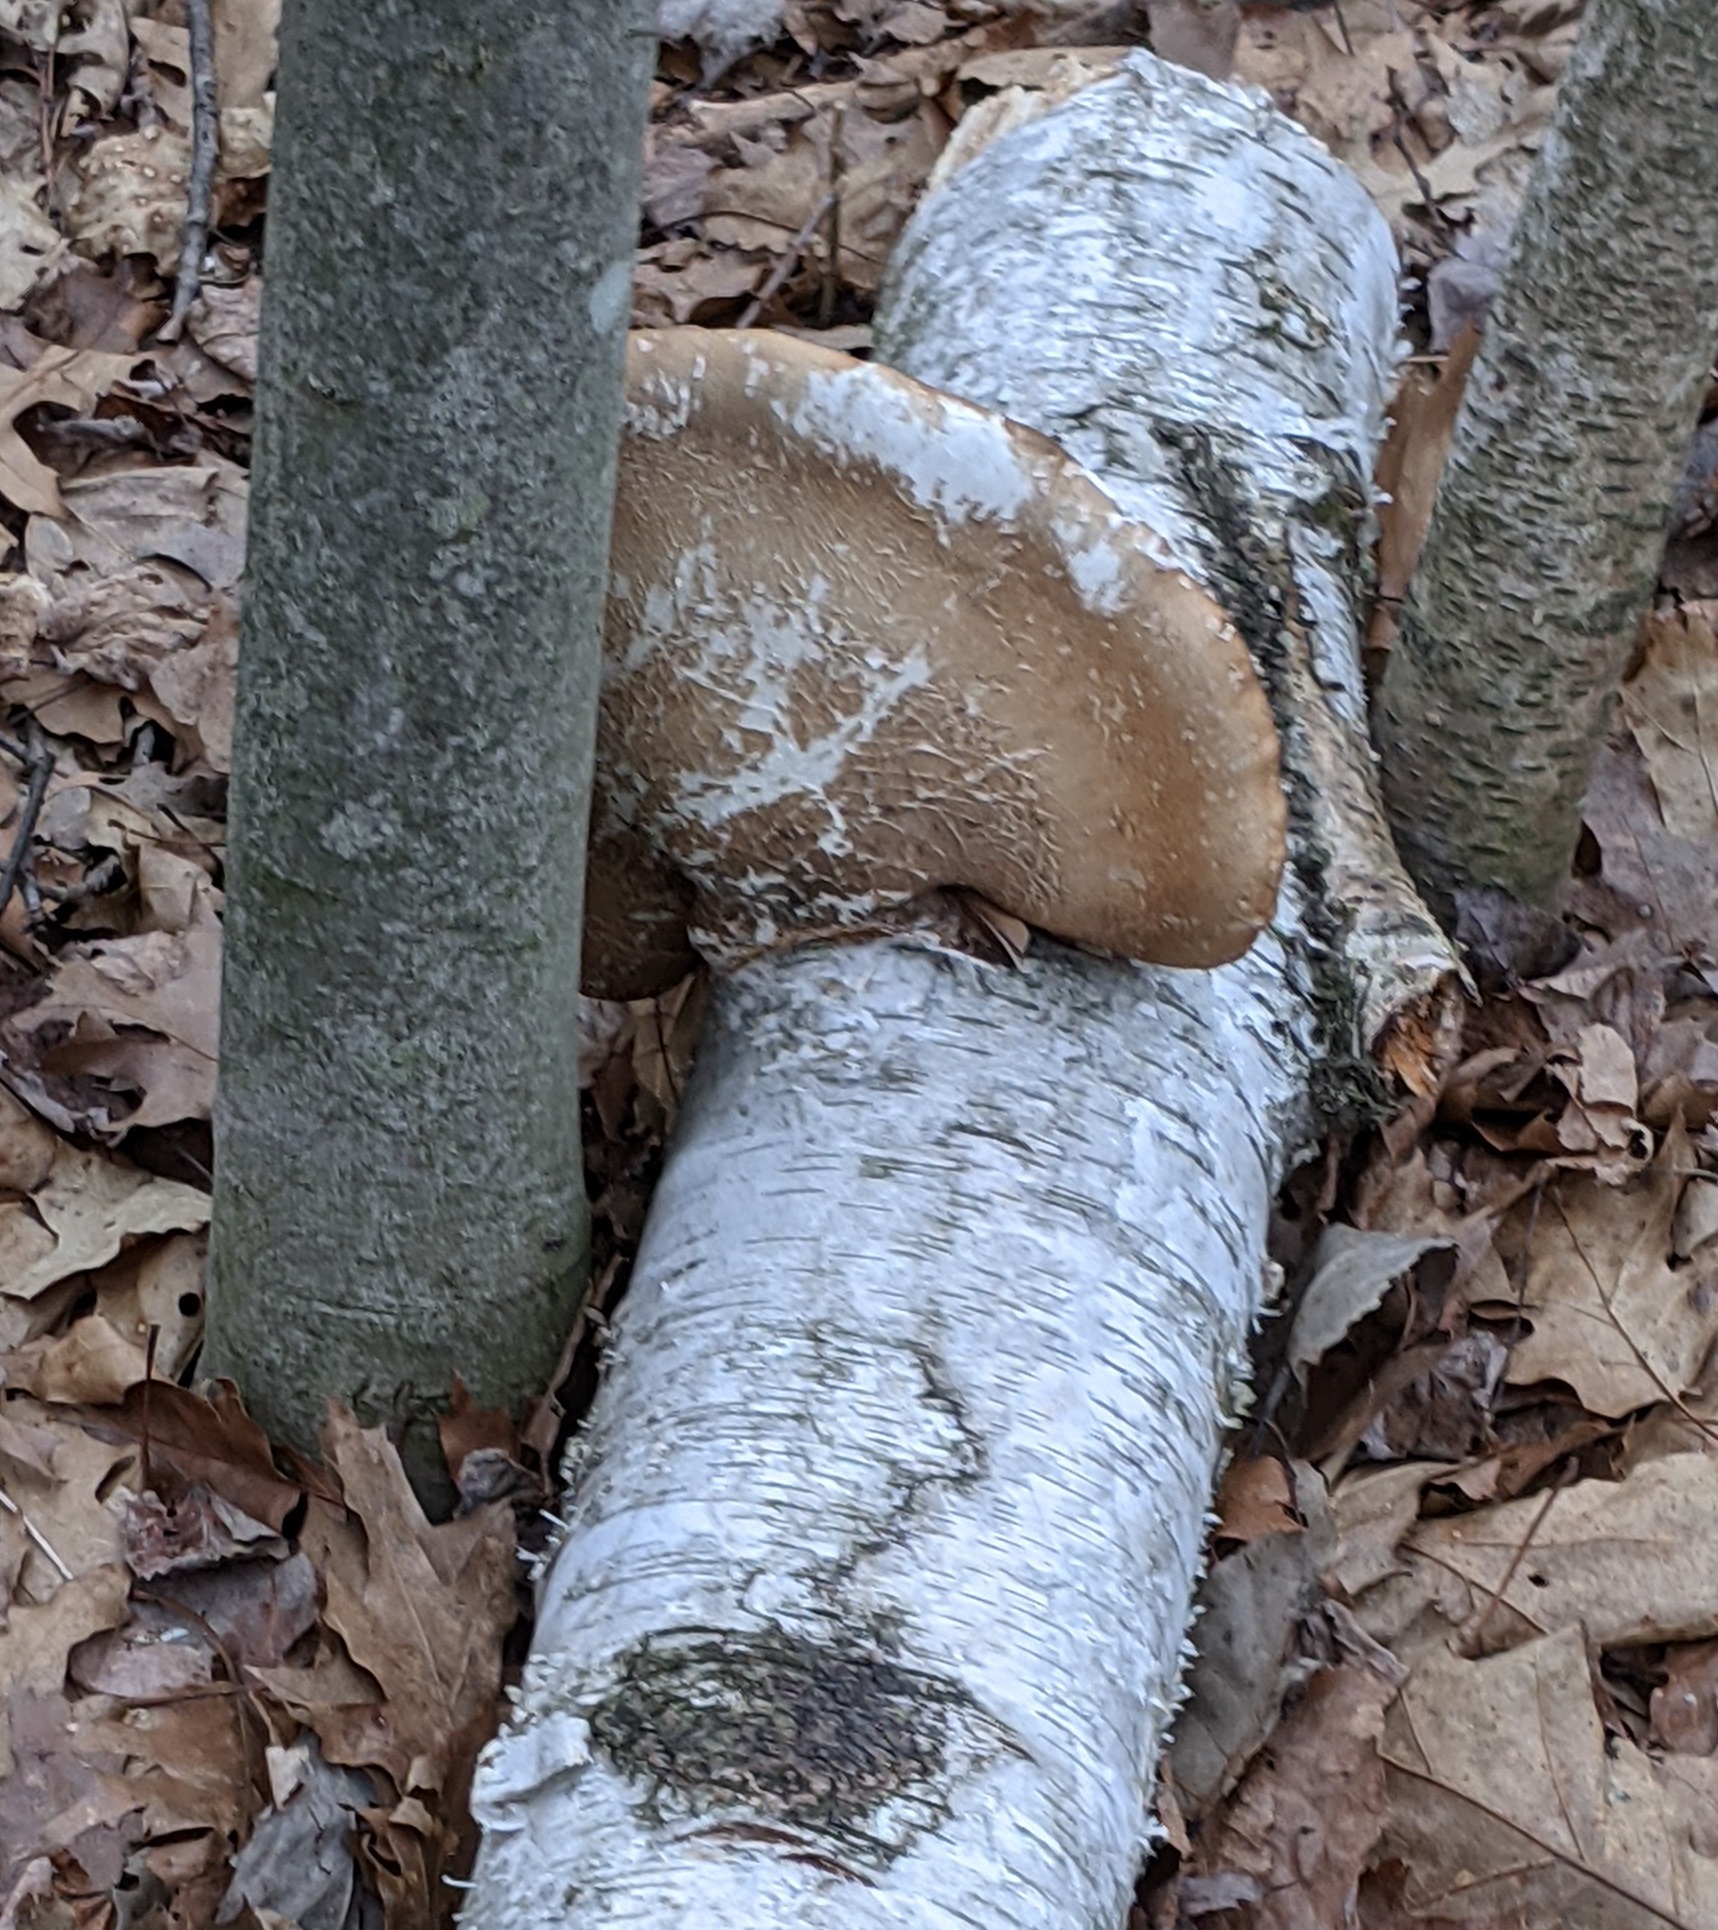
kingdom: Fungi
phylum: Basidiomycota
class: Agaricomycetes
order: Polyporales
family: Fomitopsidaceae
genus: Fomitopsis
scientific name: Fomitopsis betulina
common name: Birch polypore
